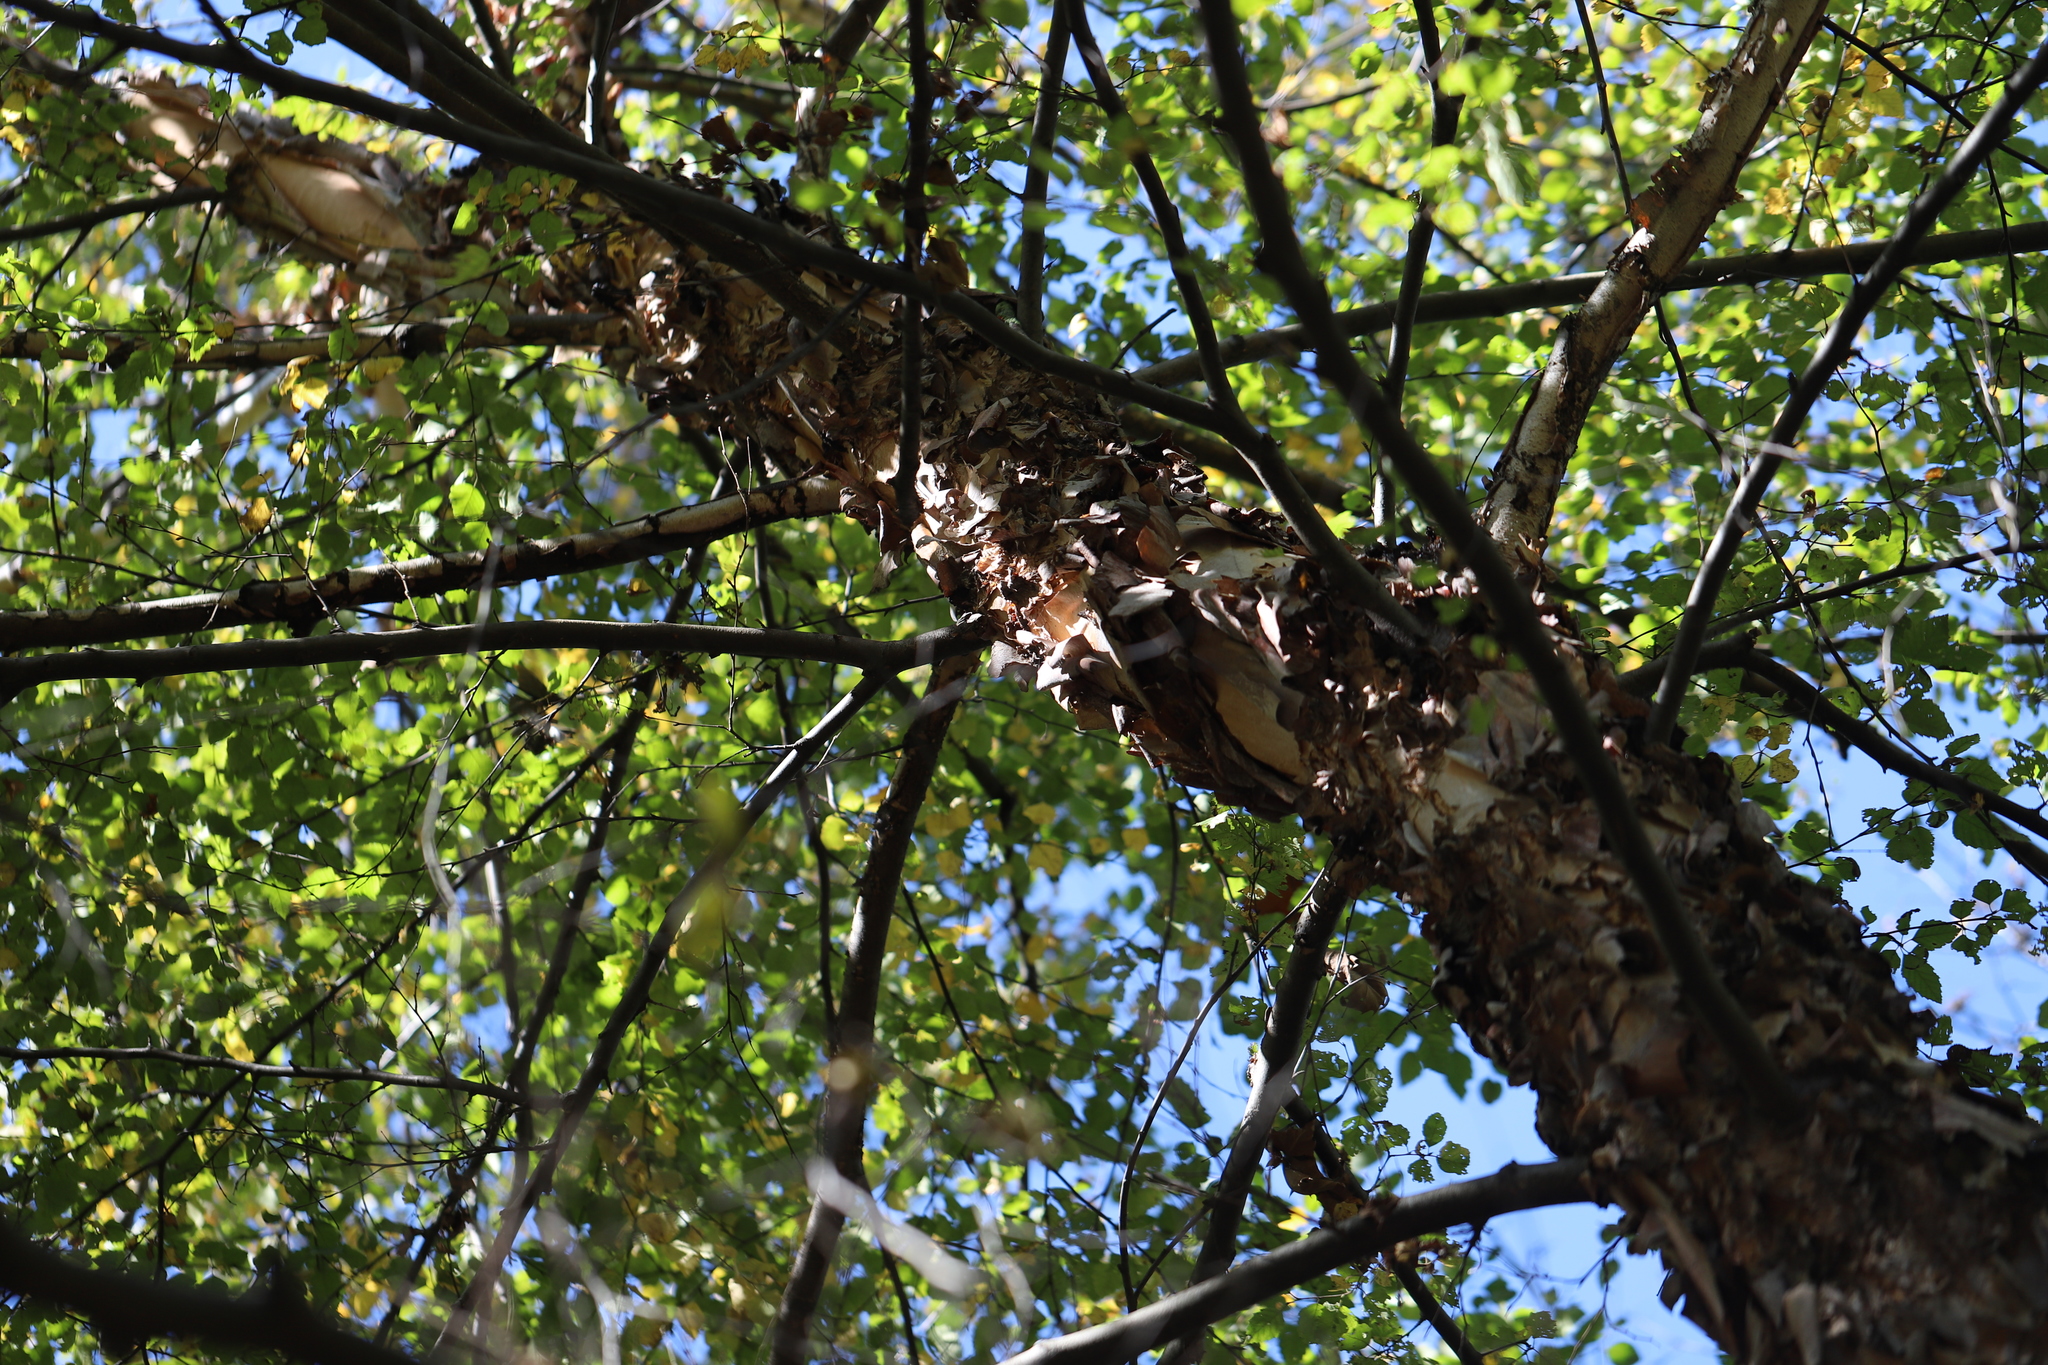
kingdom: Plantae
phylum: Tracheophyta
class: Magnoliopsida
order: Fagales
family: Betulaceae
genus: Betula
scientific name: Betula nigra
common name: Black birch
